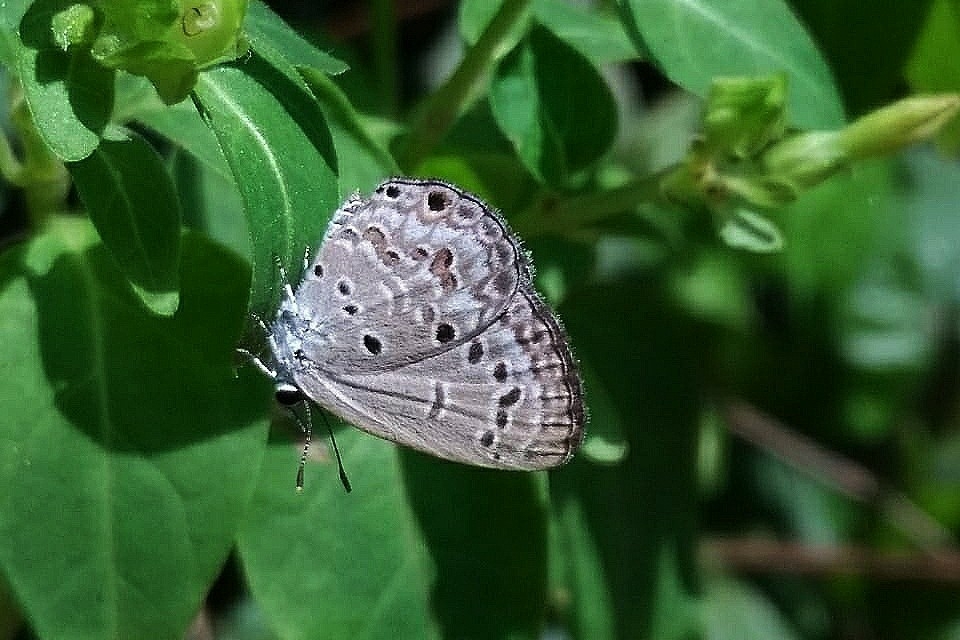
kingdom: Animalia
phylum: Arthropoda
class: Insecta
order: Lepidoptera
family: Lycaenidae
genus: Chilades
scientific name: Chilades laius
